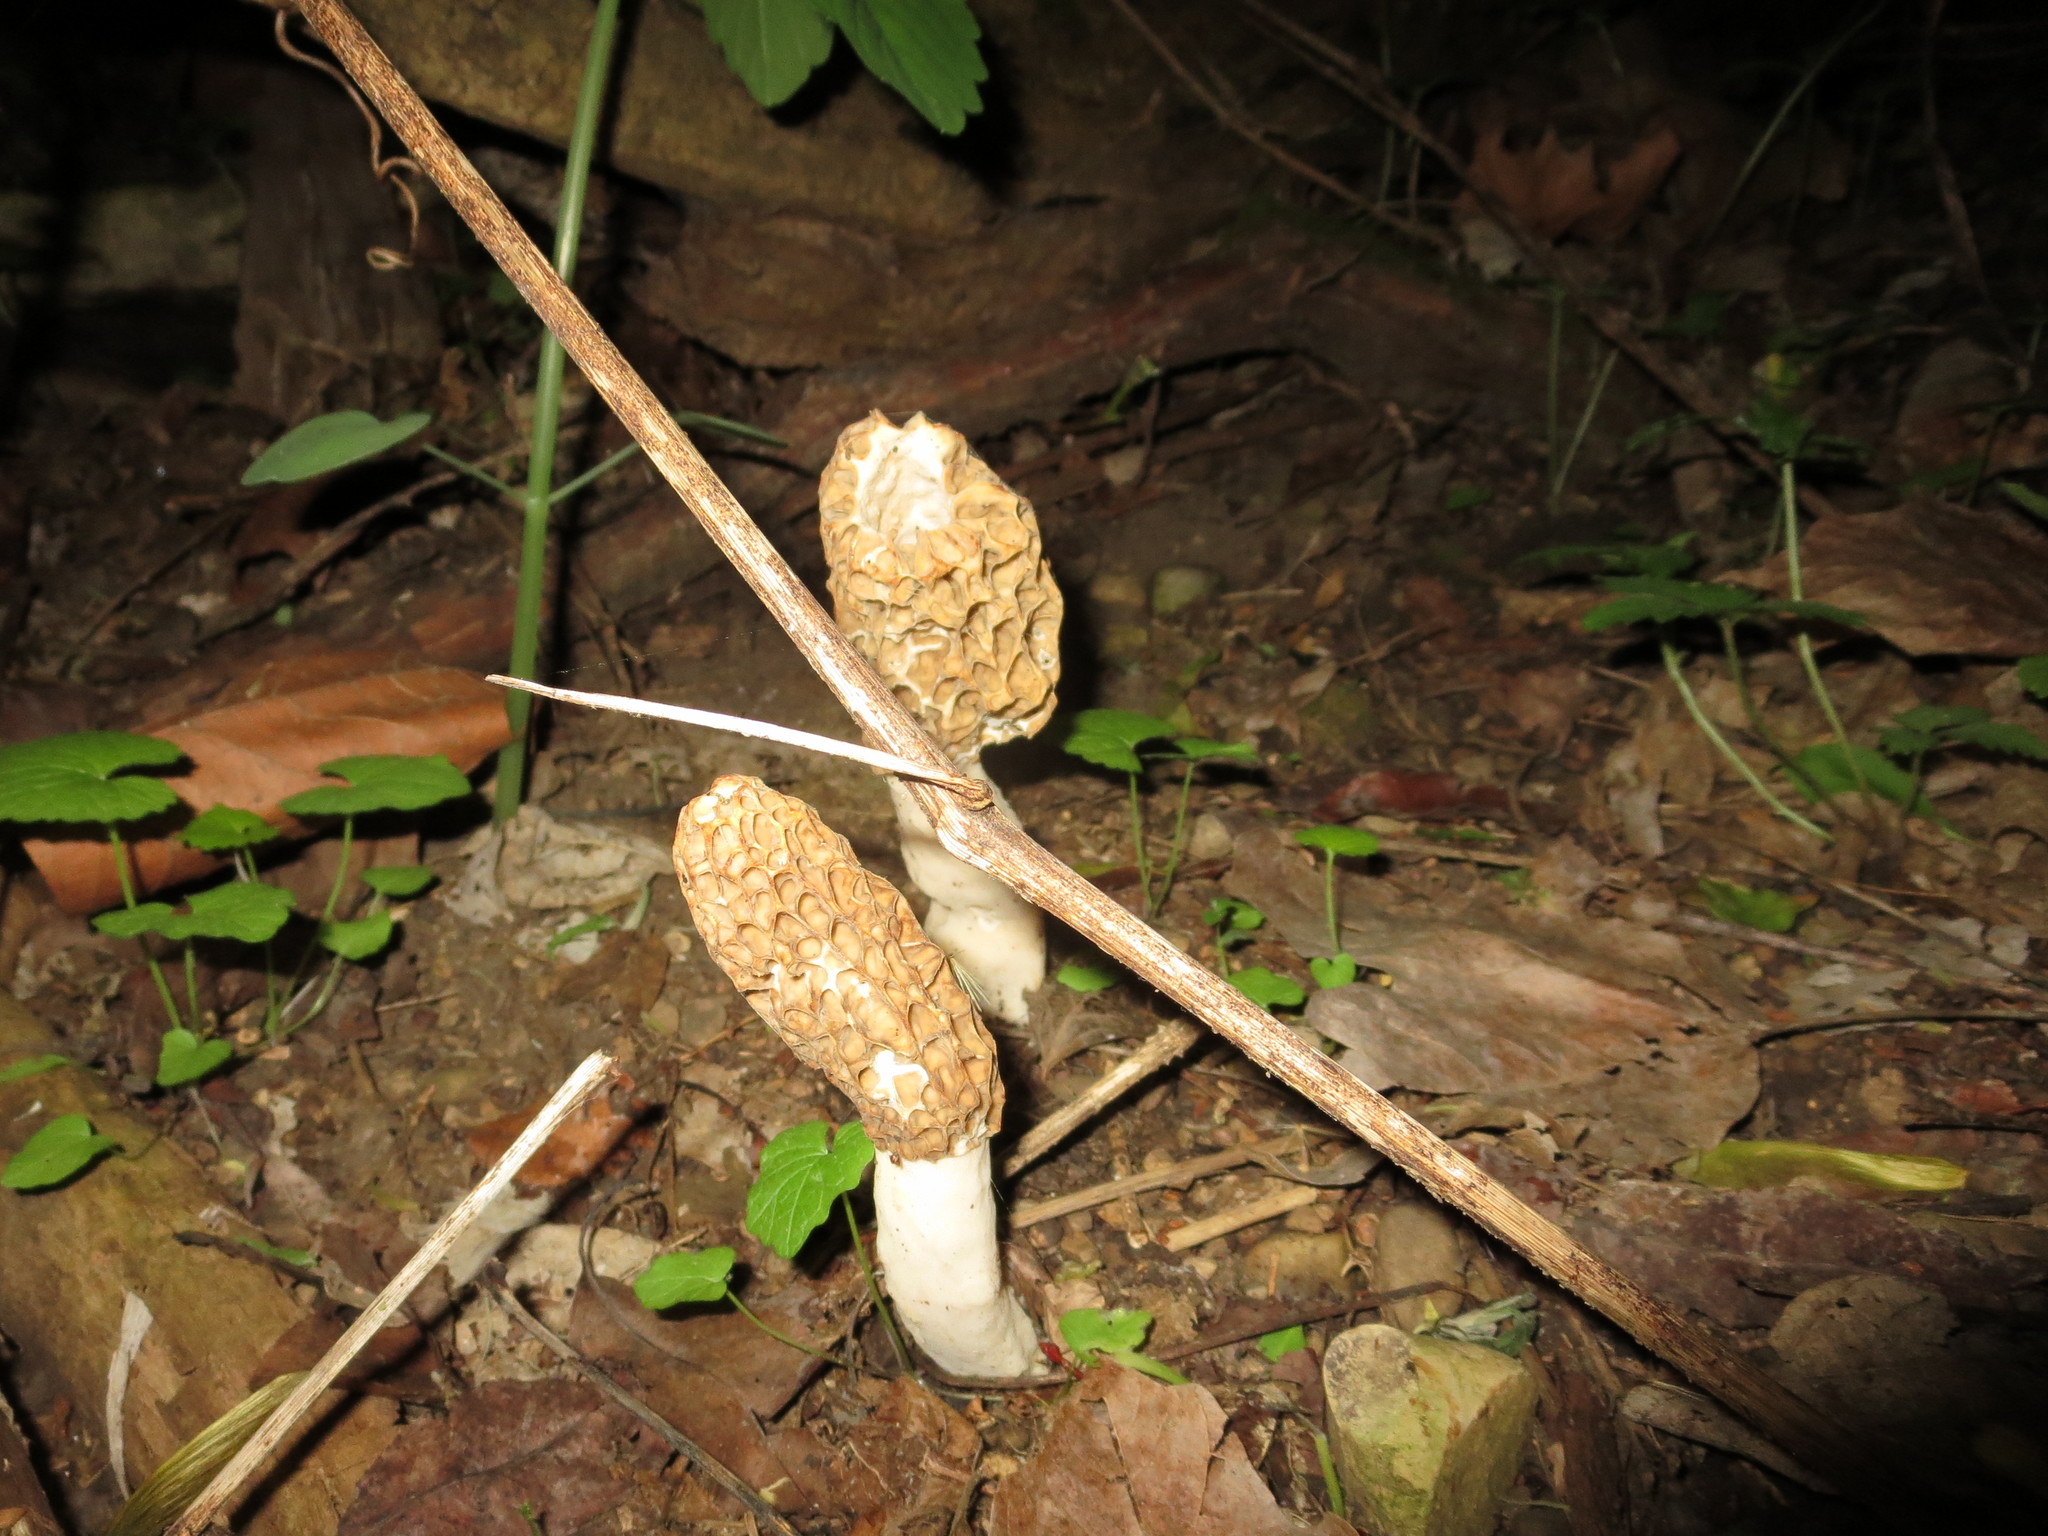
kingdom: Fungi
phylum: Ascomycota
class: Pezizomycetes
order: Pezizales
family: Morchellaceae
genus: Morchella
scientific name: Morchella americana
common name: White morel
